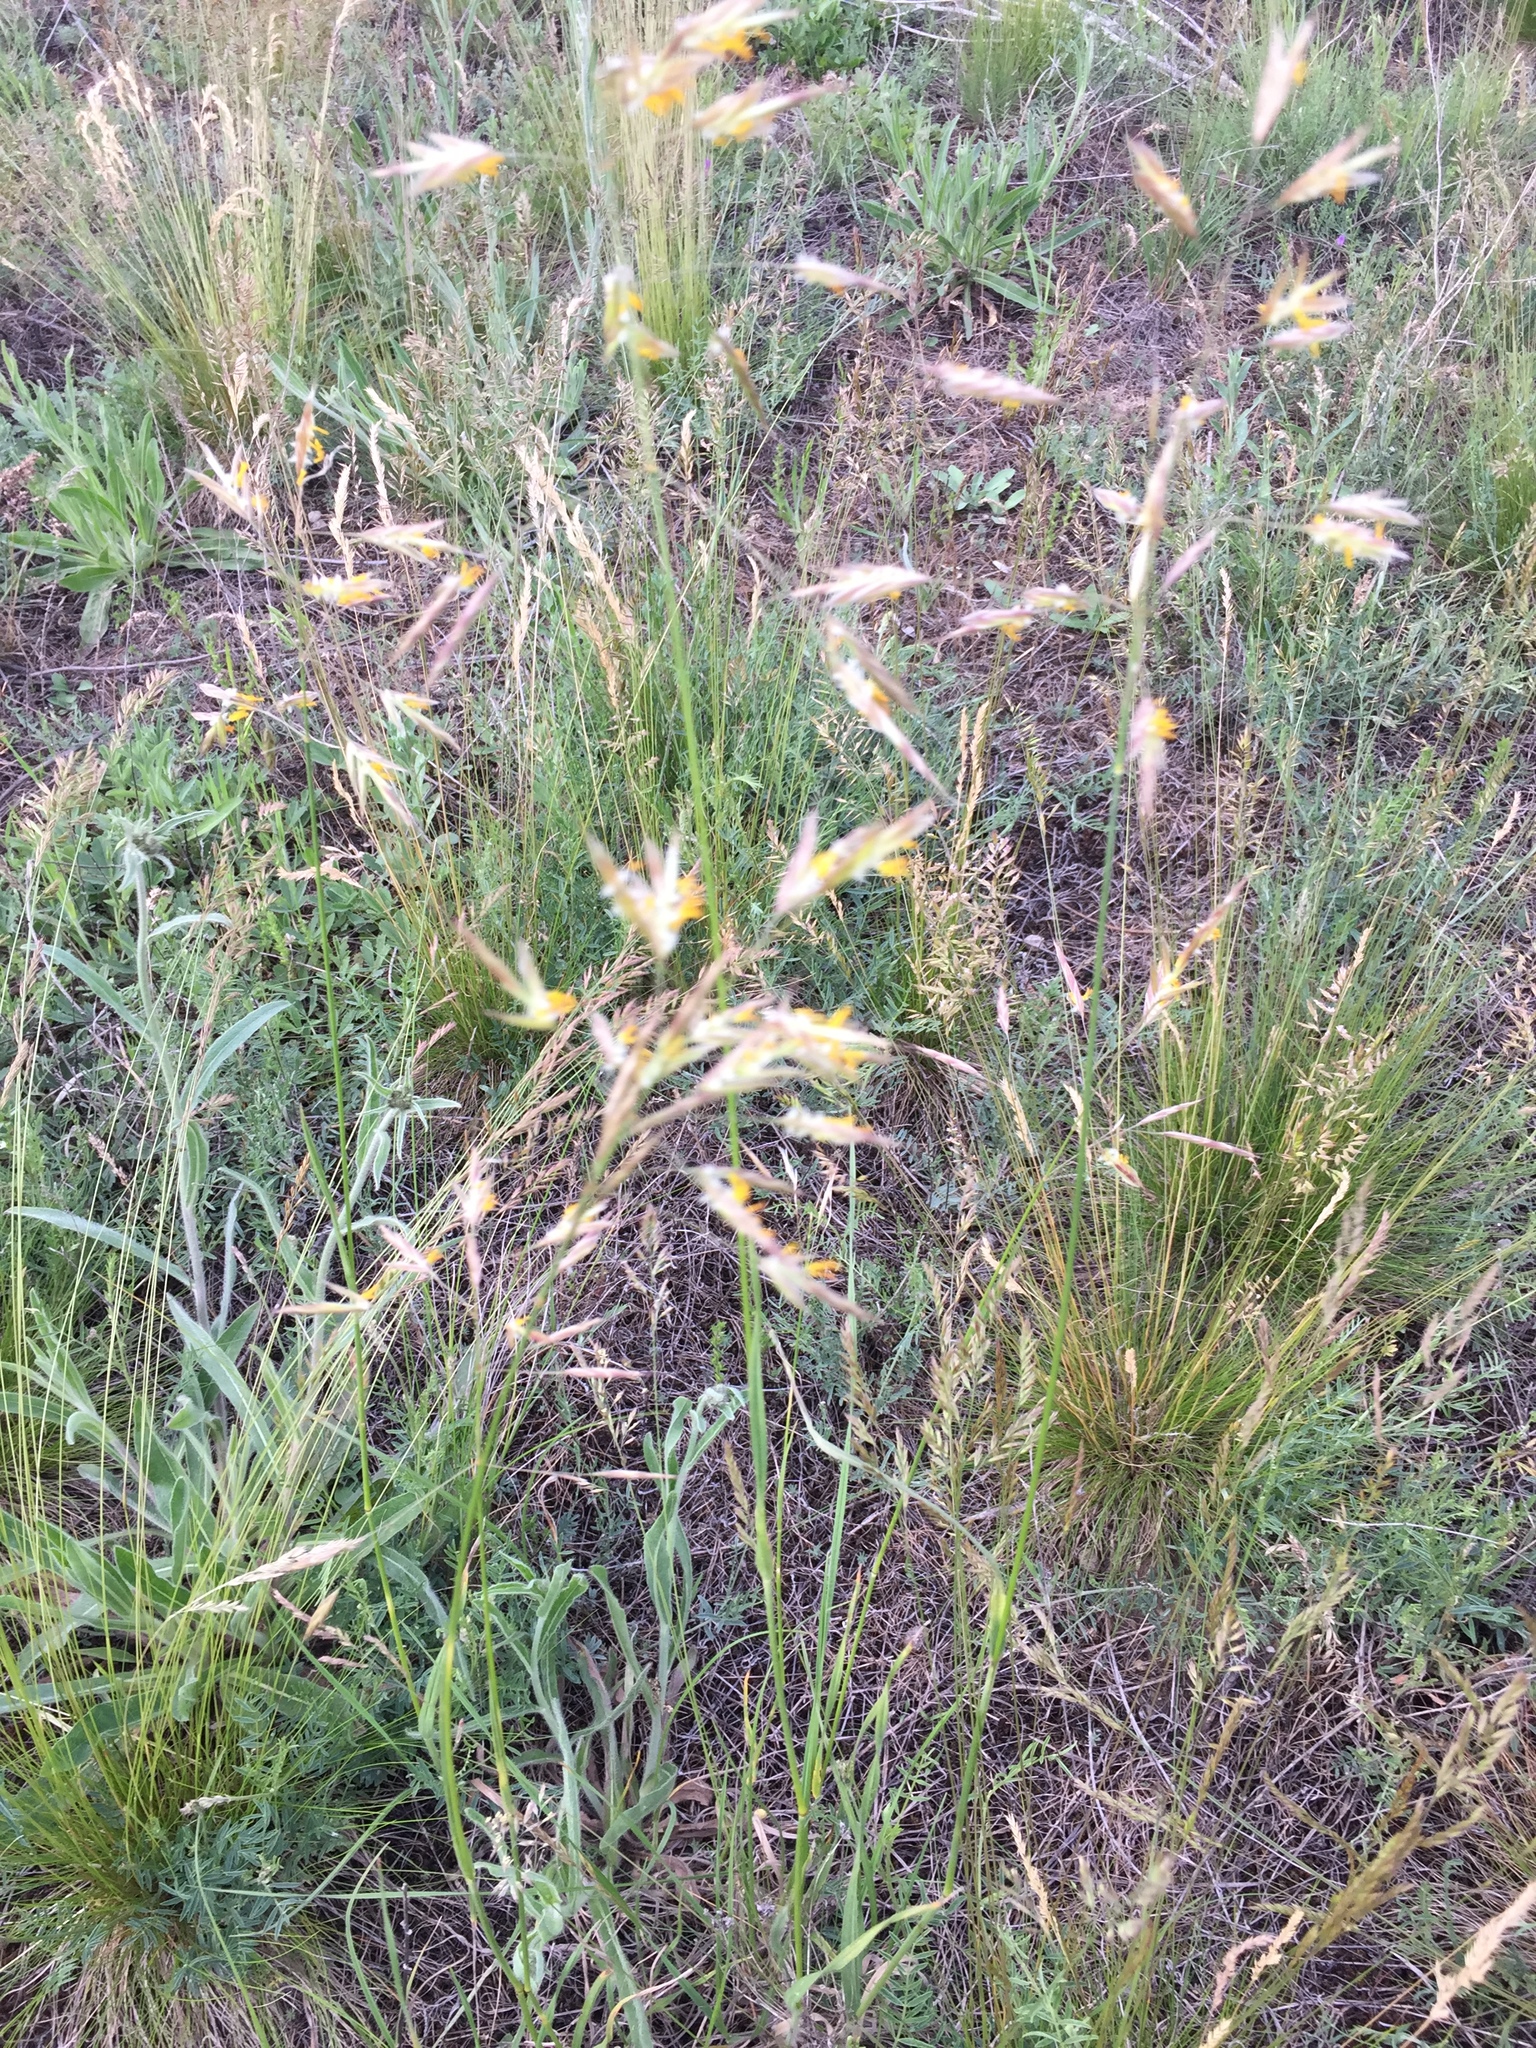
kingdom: Plantae
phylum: Tracheophyta
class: Liliopsida
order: Poales
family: Poaceae
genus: Bromus
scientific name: Bromus riparius
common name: Meadow brome
